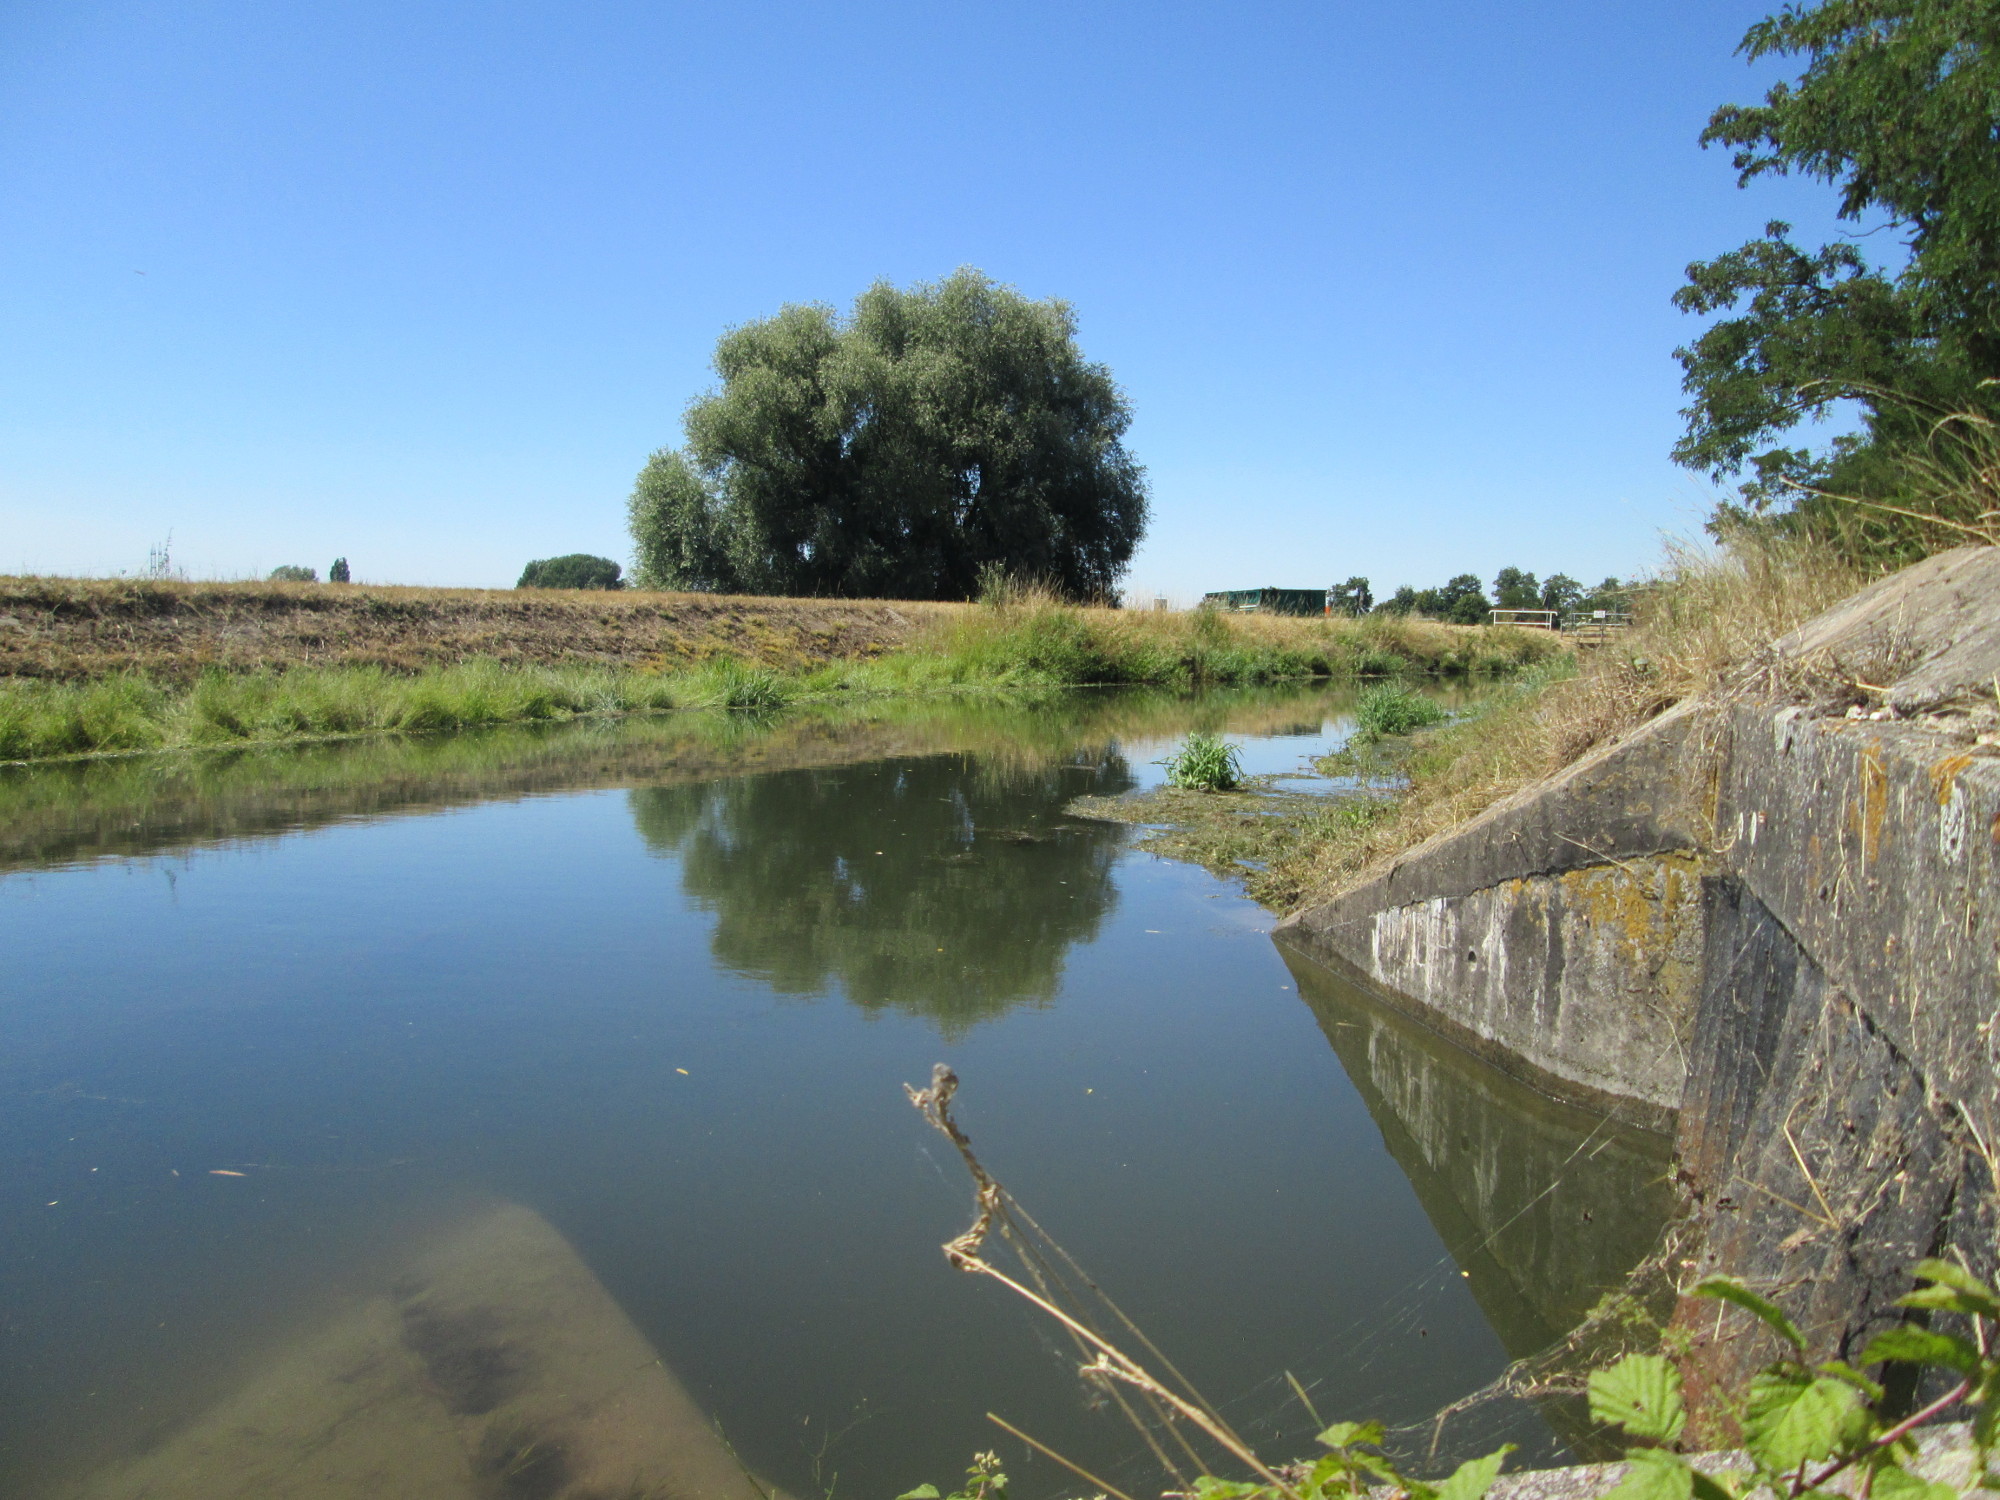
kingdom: Plantae
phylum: Tracheophyta
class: Magnoliopsida
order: Malpighiales
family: Salicaceae
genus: Salix
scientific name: Salix alba
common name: White willow
